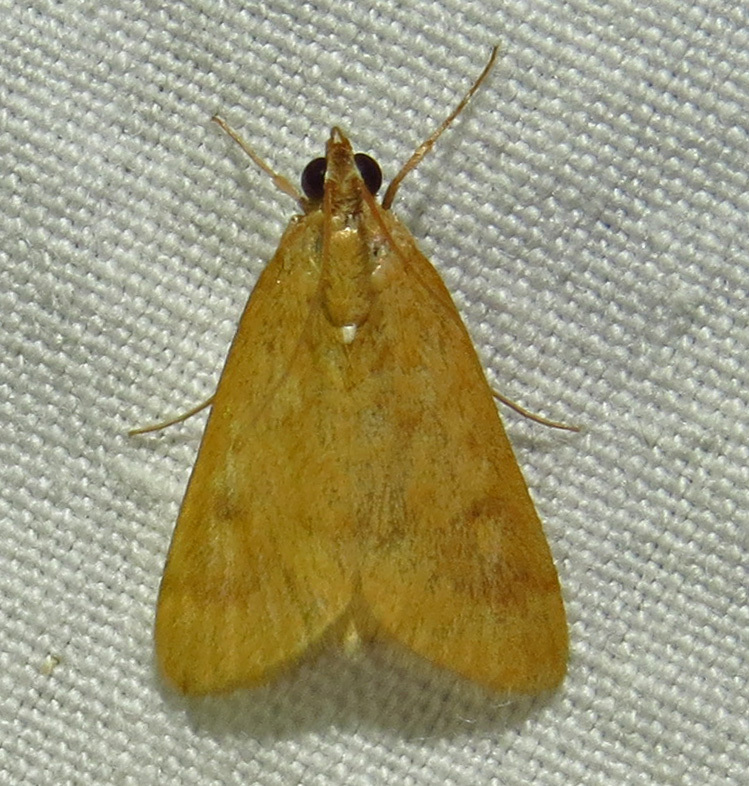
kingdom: Animalia
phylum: Arthropoda
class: Insecta
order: Lepidoptera
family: Crambidae
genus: Achyra
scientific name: Achyra rantalis
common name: Garden webworm
